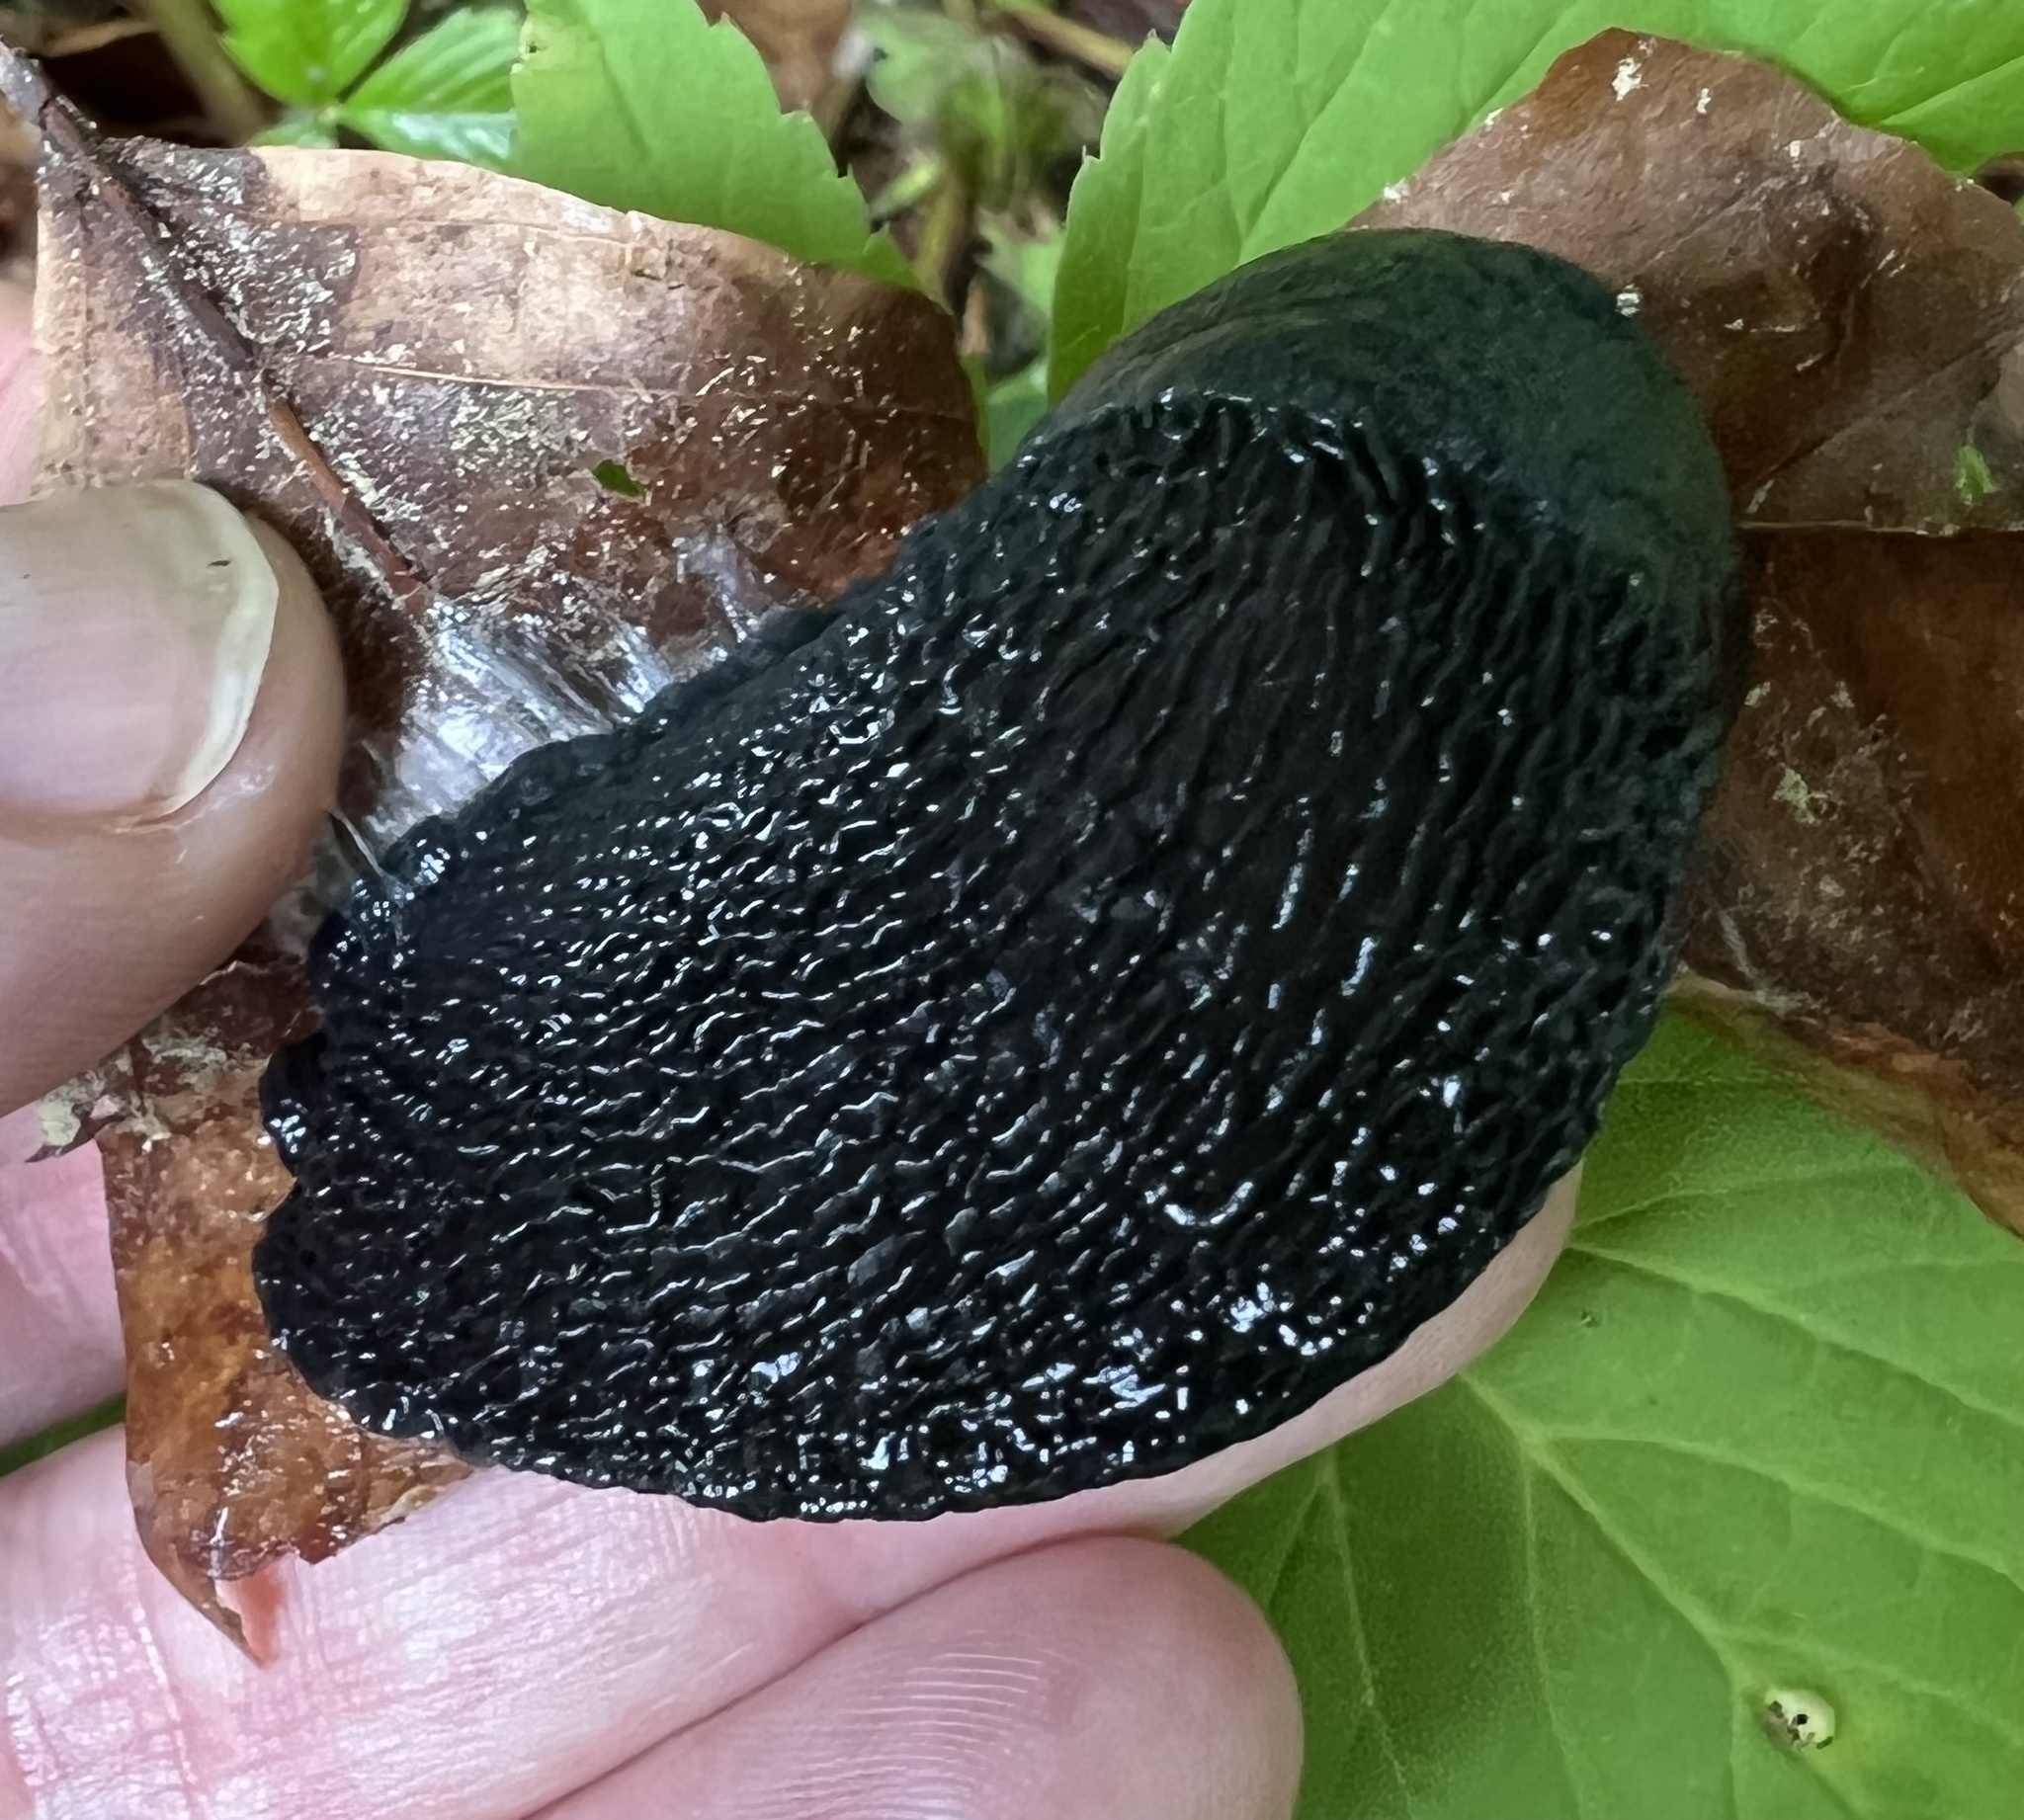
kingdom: Animalia
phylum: Mollusca
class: Gastropoda
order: Stylommatophora
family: Limacidae
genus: Limax
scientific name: Limax cinereoniger
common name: Ash-black slug
